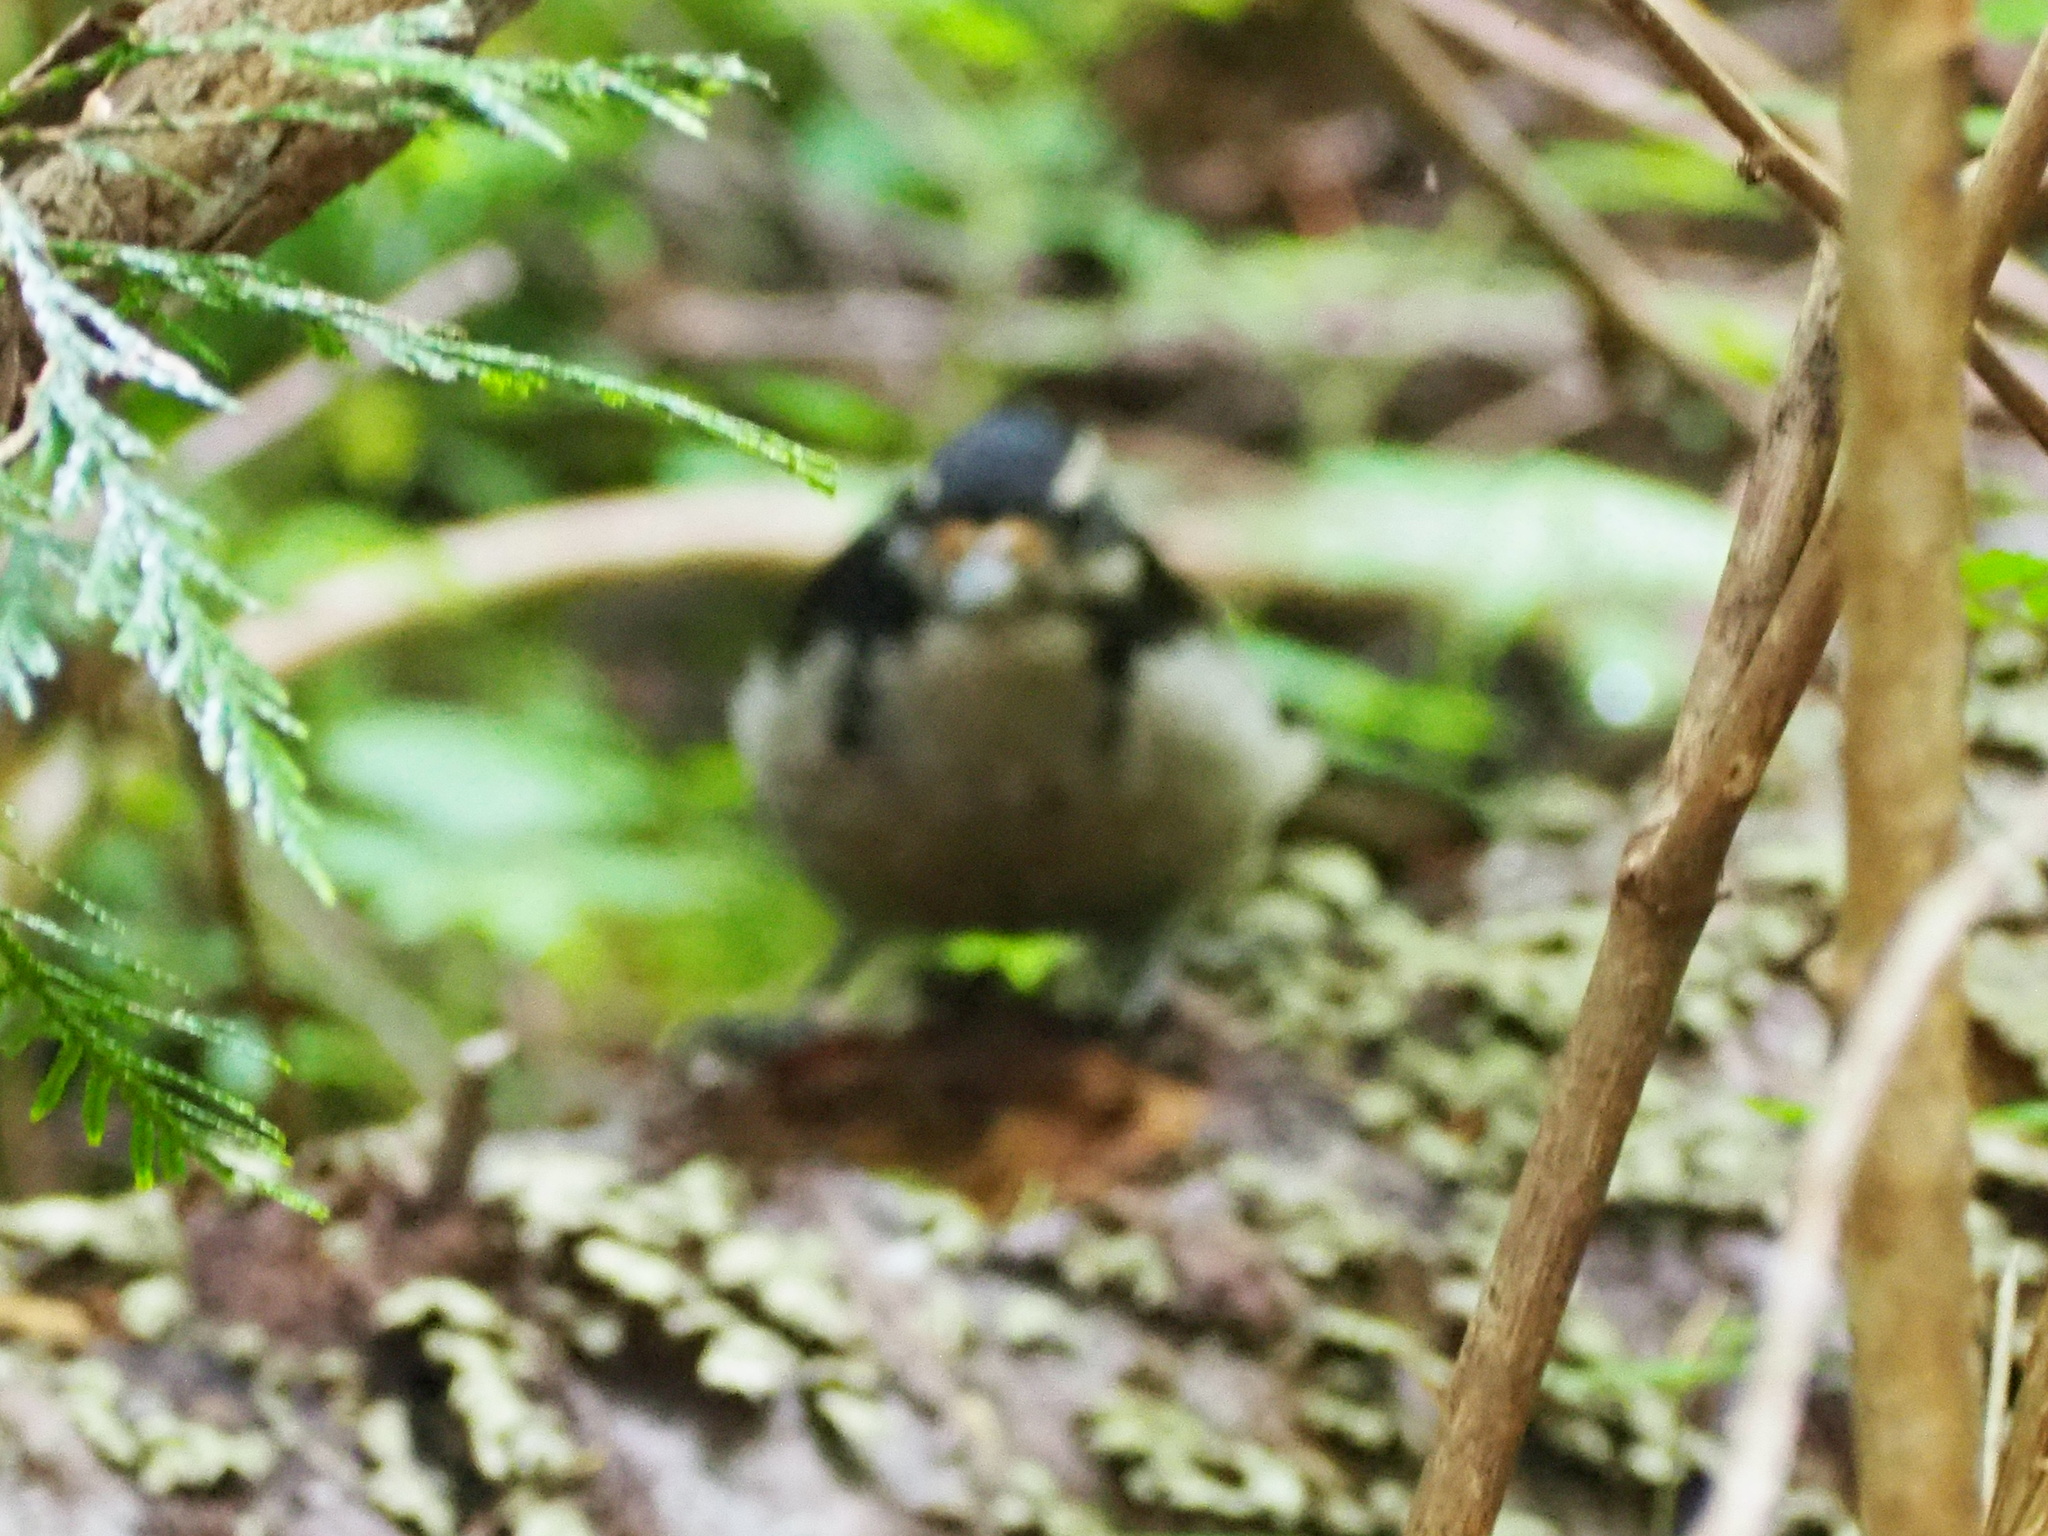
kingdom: Animalia
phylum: Chordata
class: Aves
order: Piciformes
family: Picidae
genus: Leuconotopicus
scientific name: Leuconotopicus villosus
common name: Hairy woodpecker
